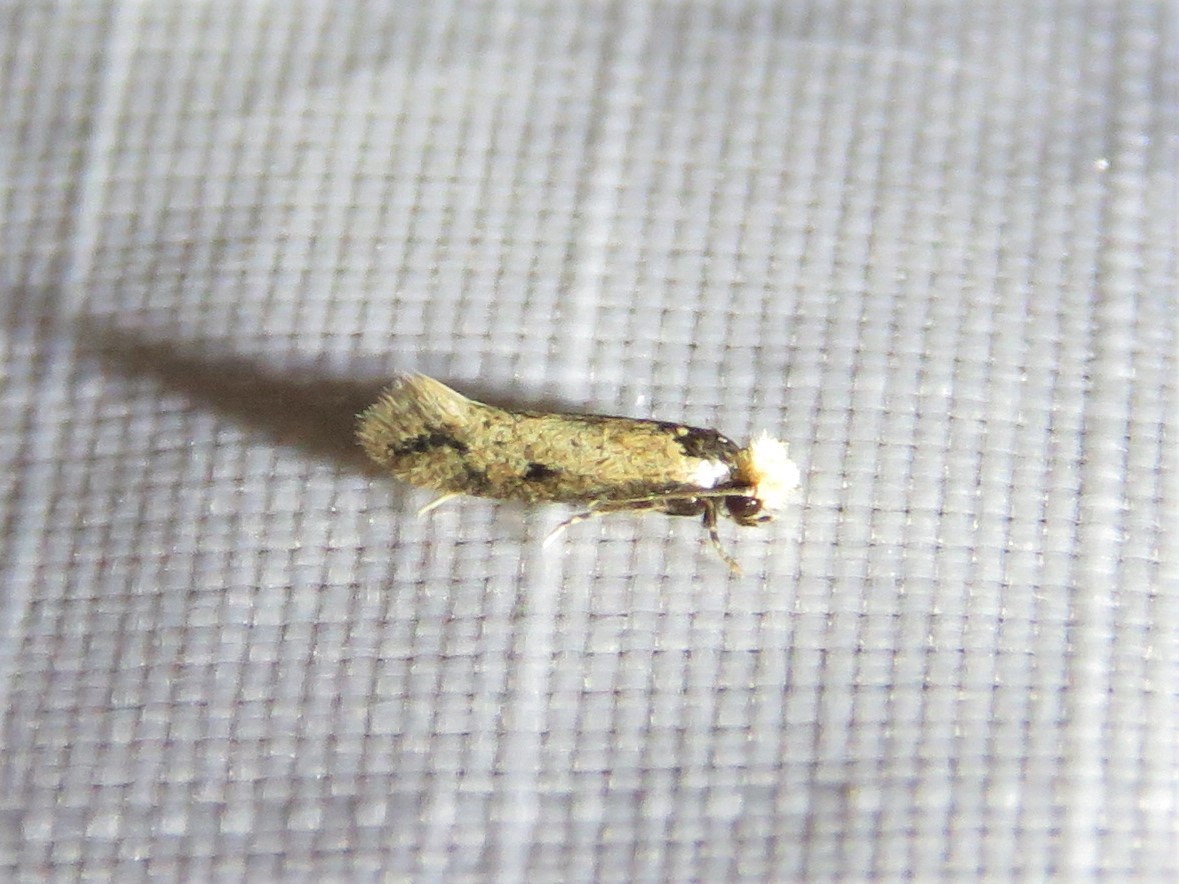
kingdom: Animalia
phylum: Arthropoda
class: Insecta
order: Lepidoptera
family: Meessiidae
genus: Homostinea
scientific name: Homostinea curviliniella
